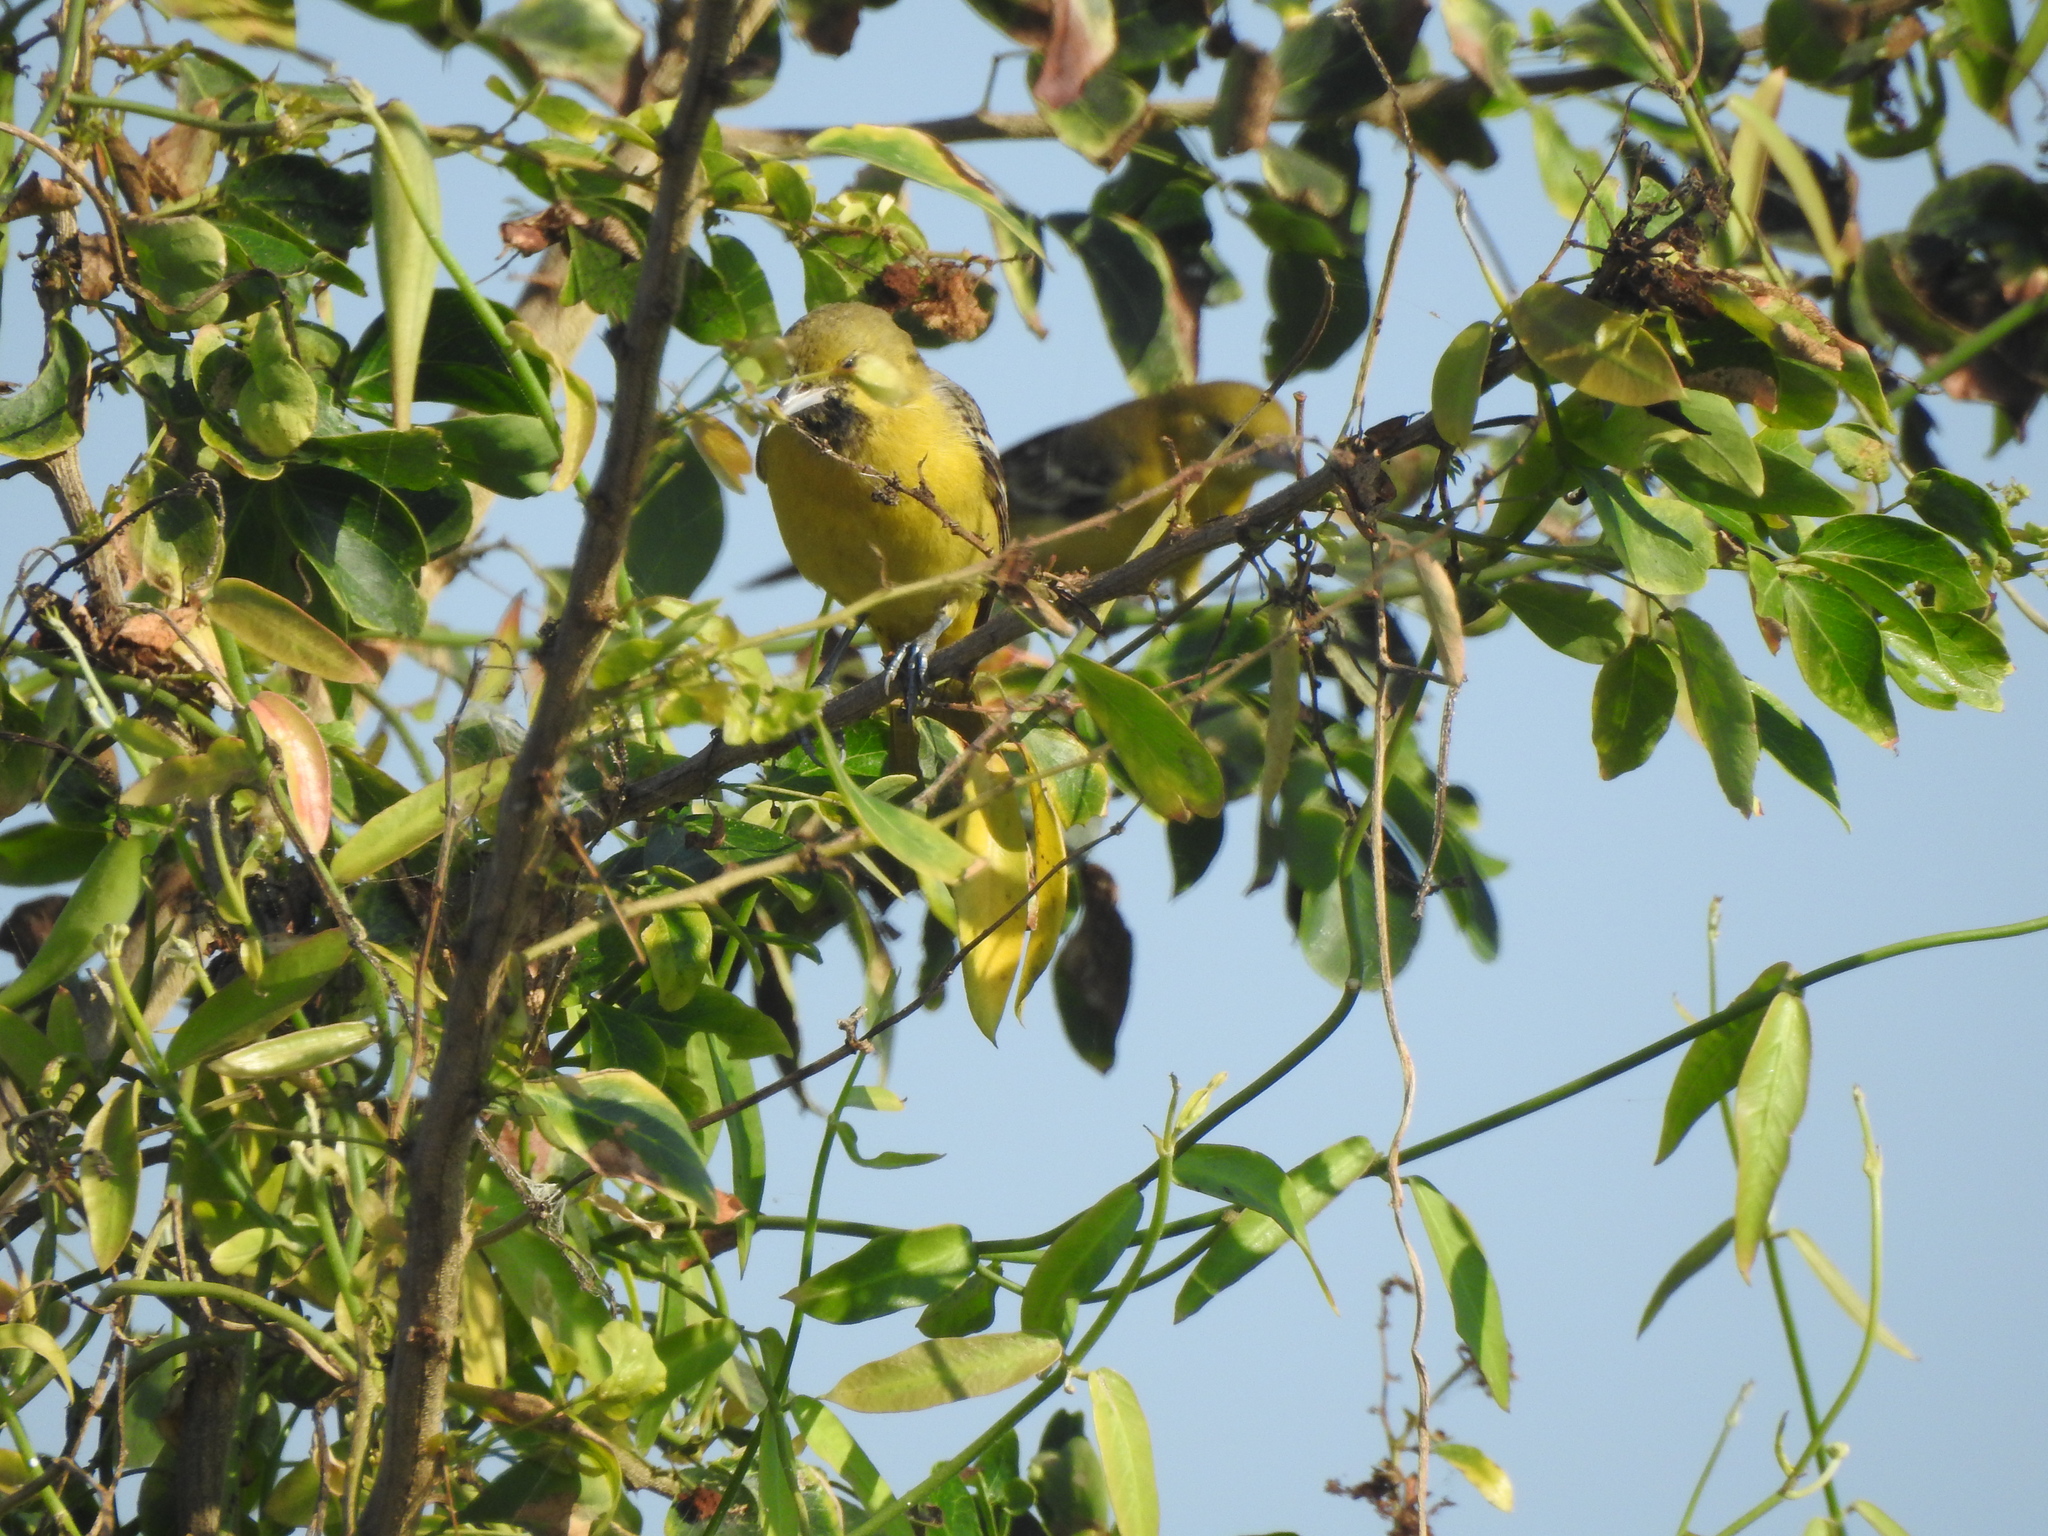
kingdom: Animalia
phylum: Chordata
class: Aves
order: Passeriformes
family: Icteridae
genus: Icterus
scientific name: Icterus spurius
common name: Orchard oriole
